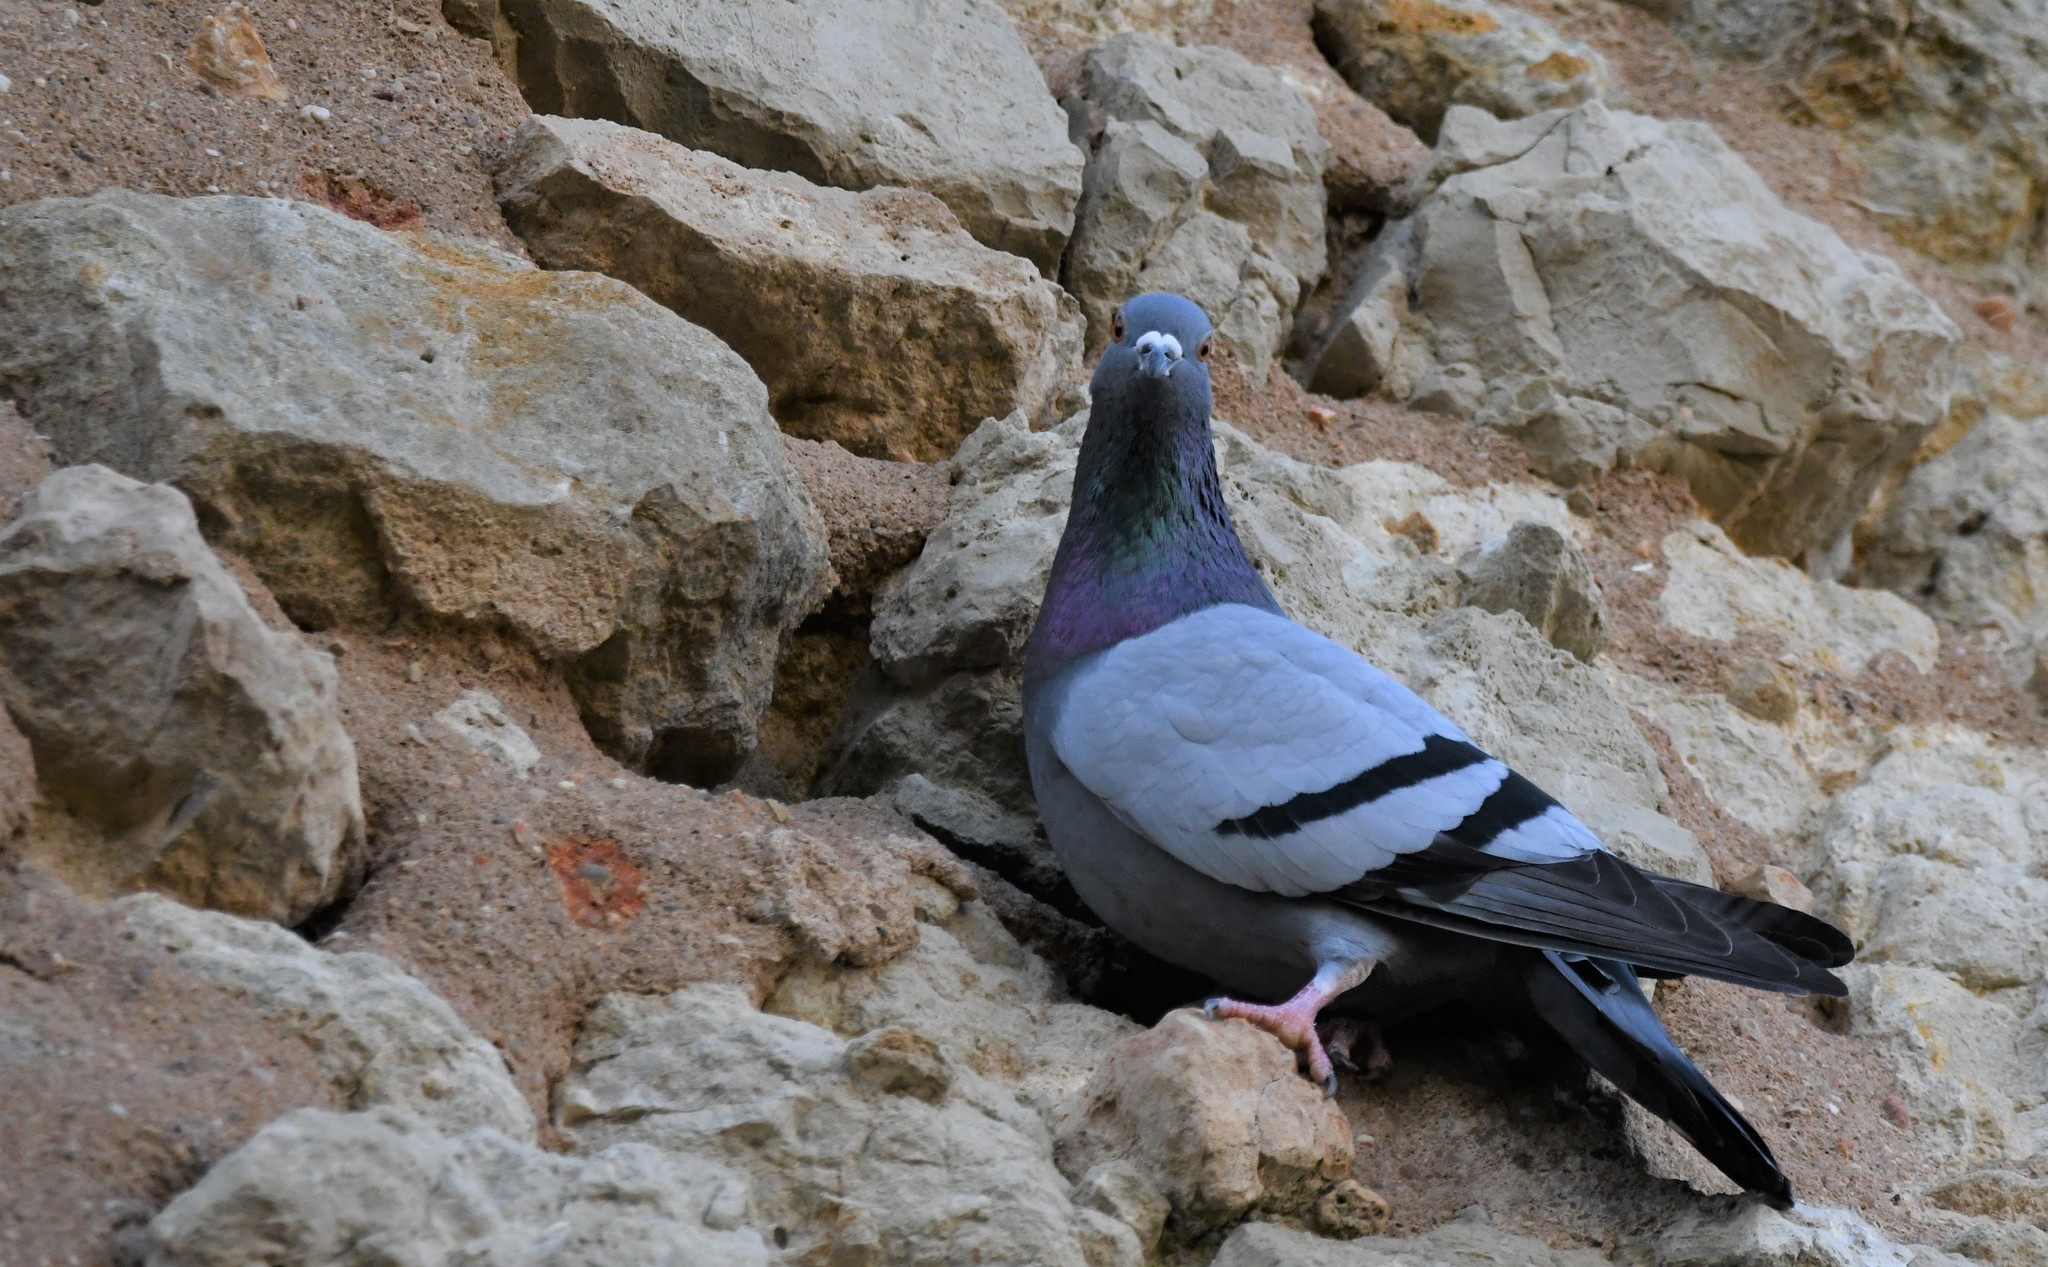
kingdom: Animalia
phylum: Chordata
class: Aves
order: Columbiformes
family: Columbidae
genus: Columba
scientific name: Columba livia
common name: Rock pigeon
